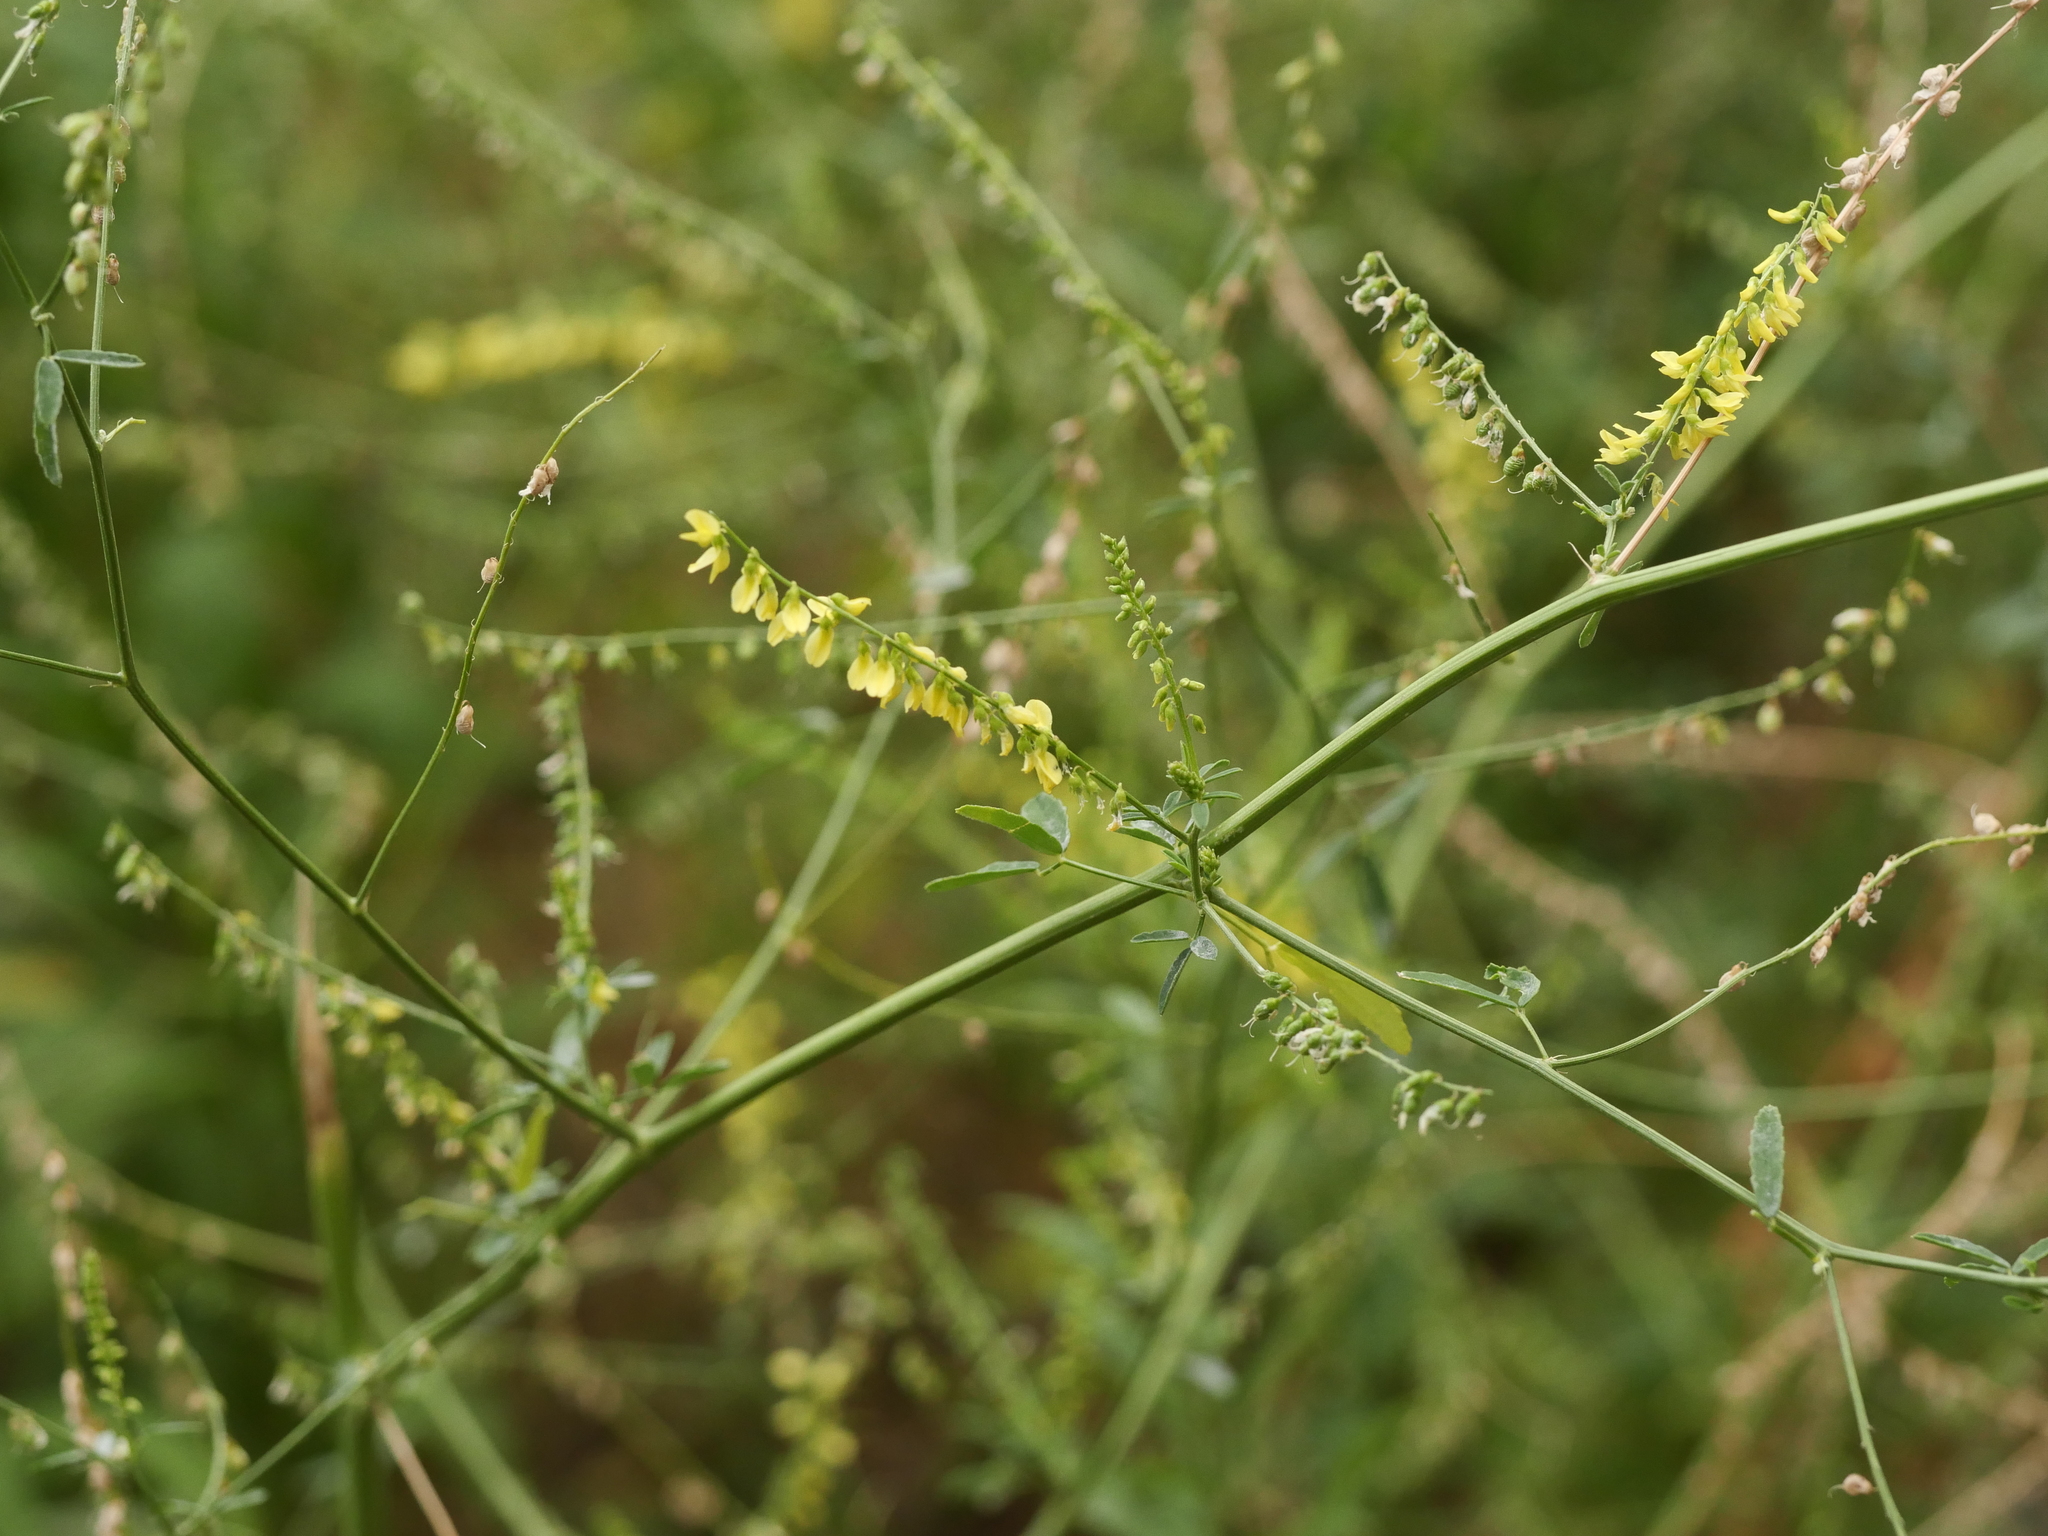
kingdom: Plantae
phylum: Tracheophyta
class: Magnoliopsida
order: Fabales
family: Fabaceae
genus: Melilotus
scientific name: Melilotus officinalis
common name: Sweetclover
